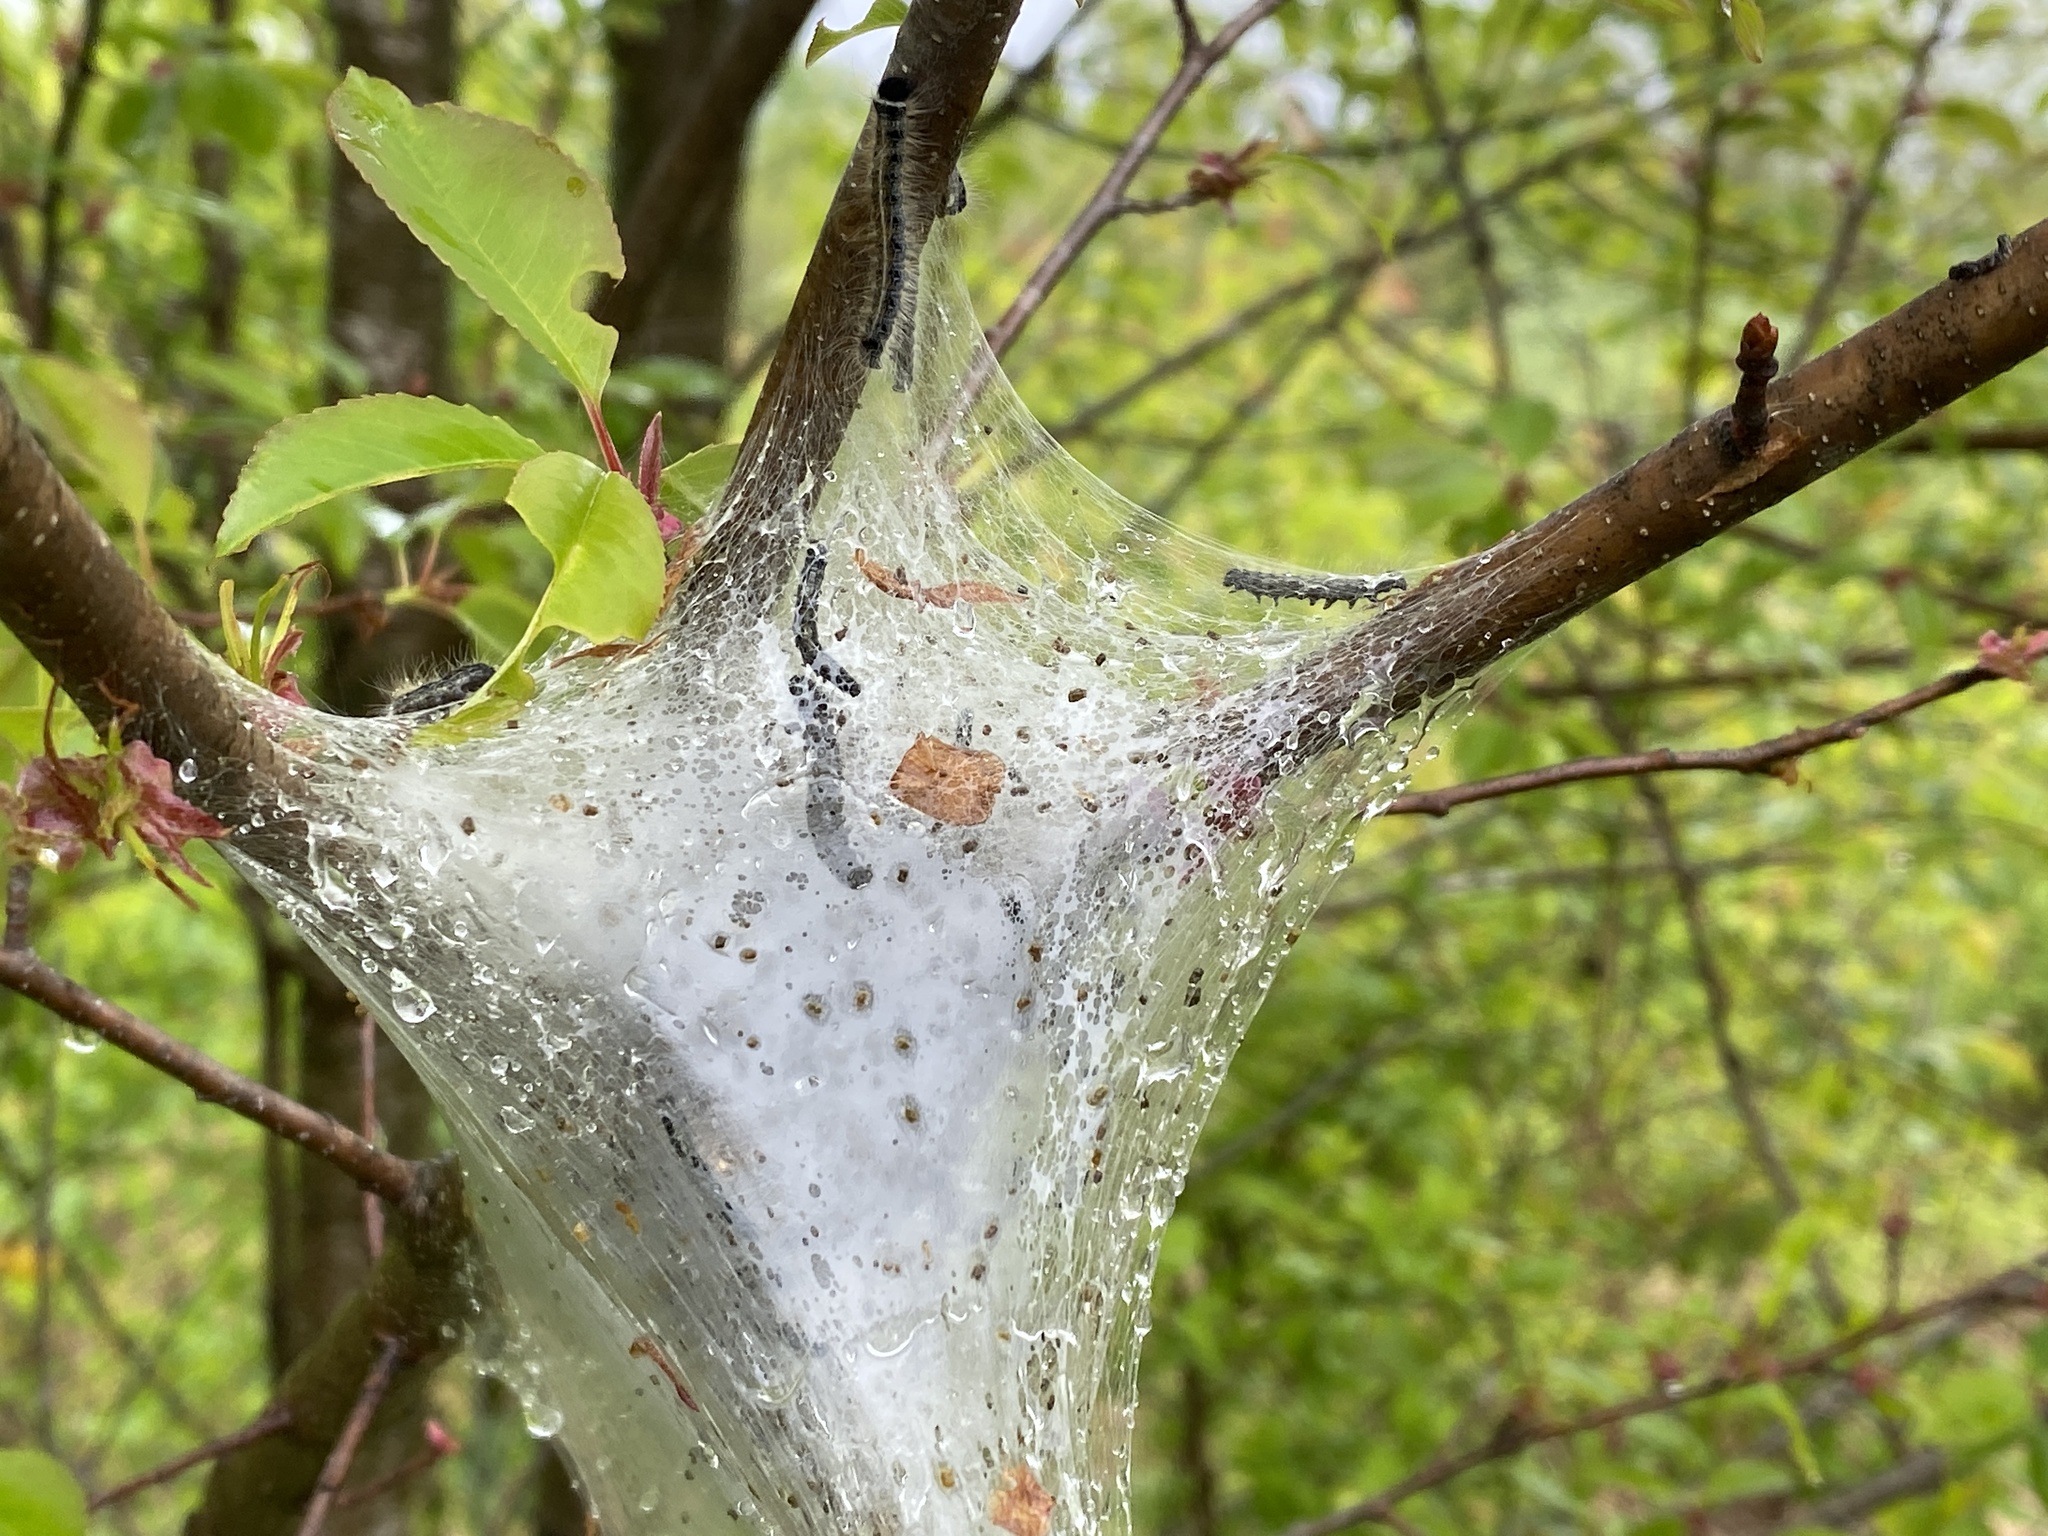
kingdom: Animalia
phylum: Arthropoda
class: Insecta
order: Lepidoptera
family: Lasiocampidae
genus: Malacosoma
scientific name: Malacosoma americana
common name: Eastern tent caterpillar moth
